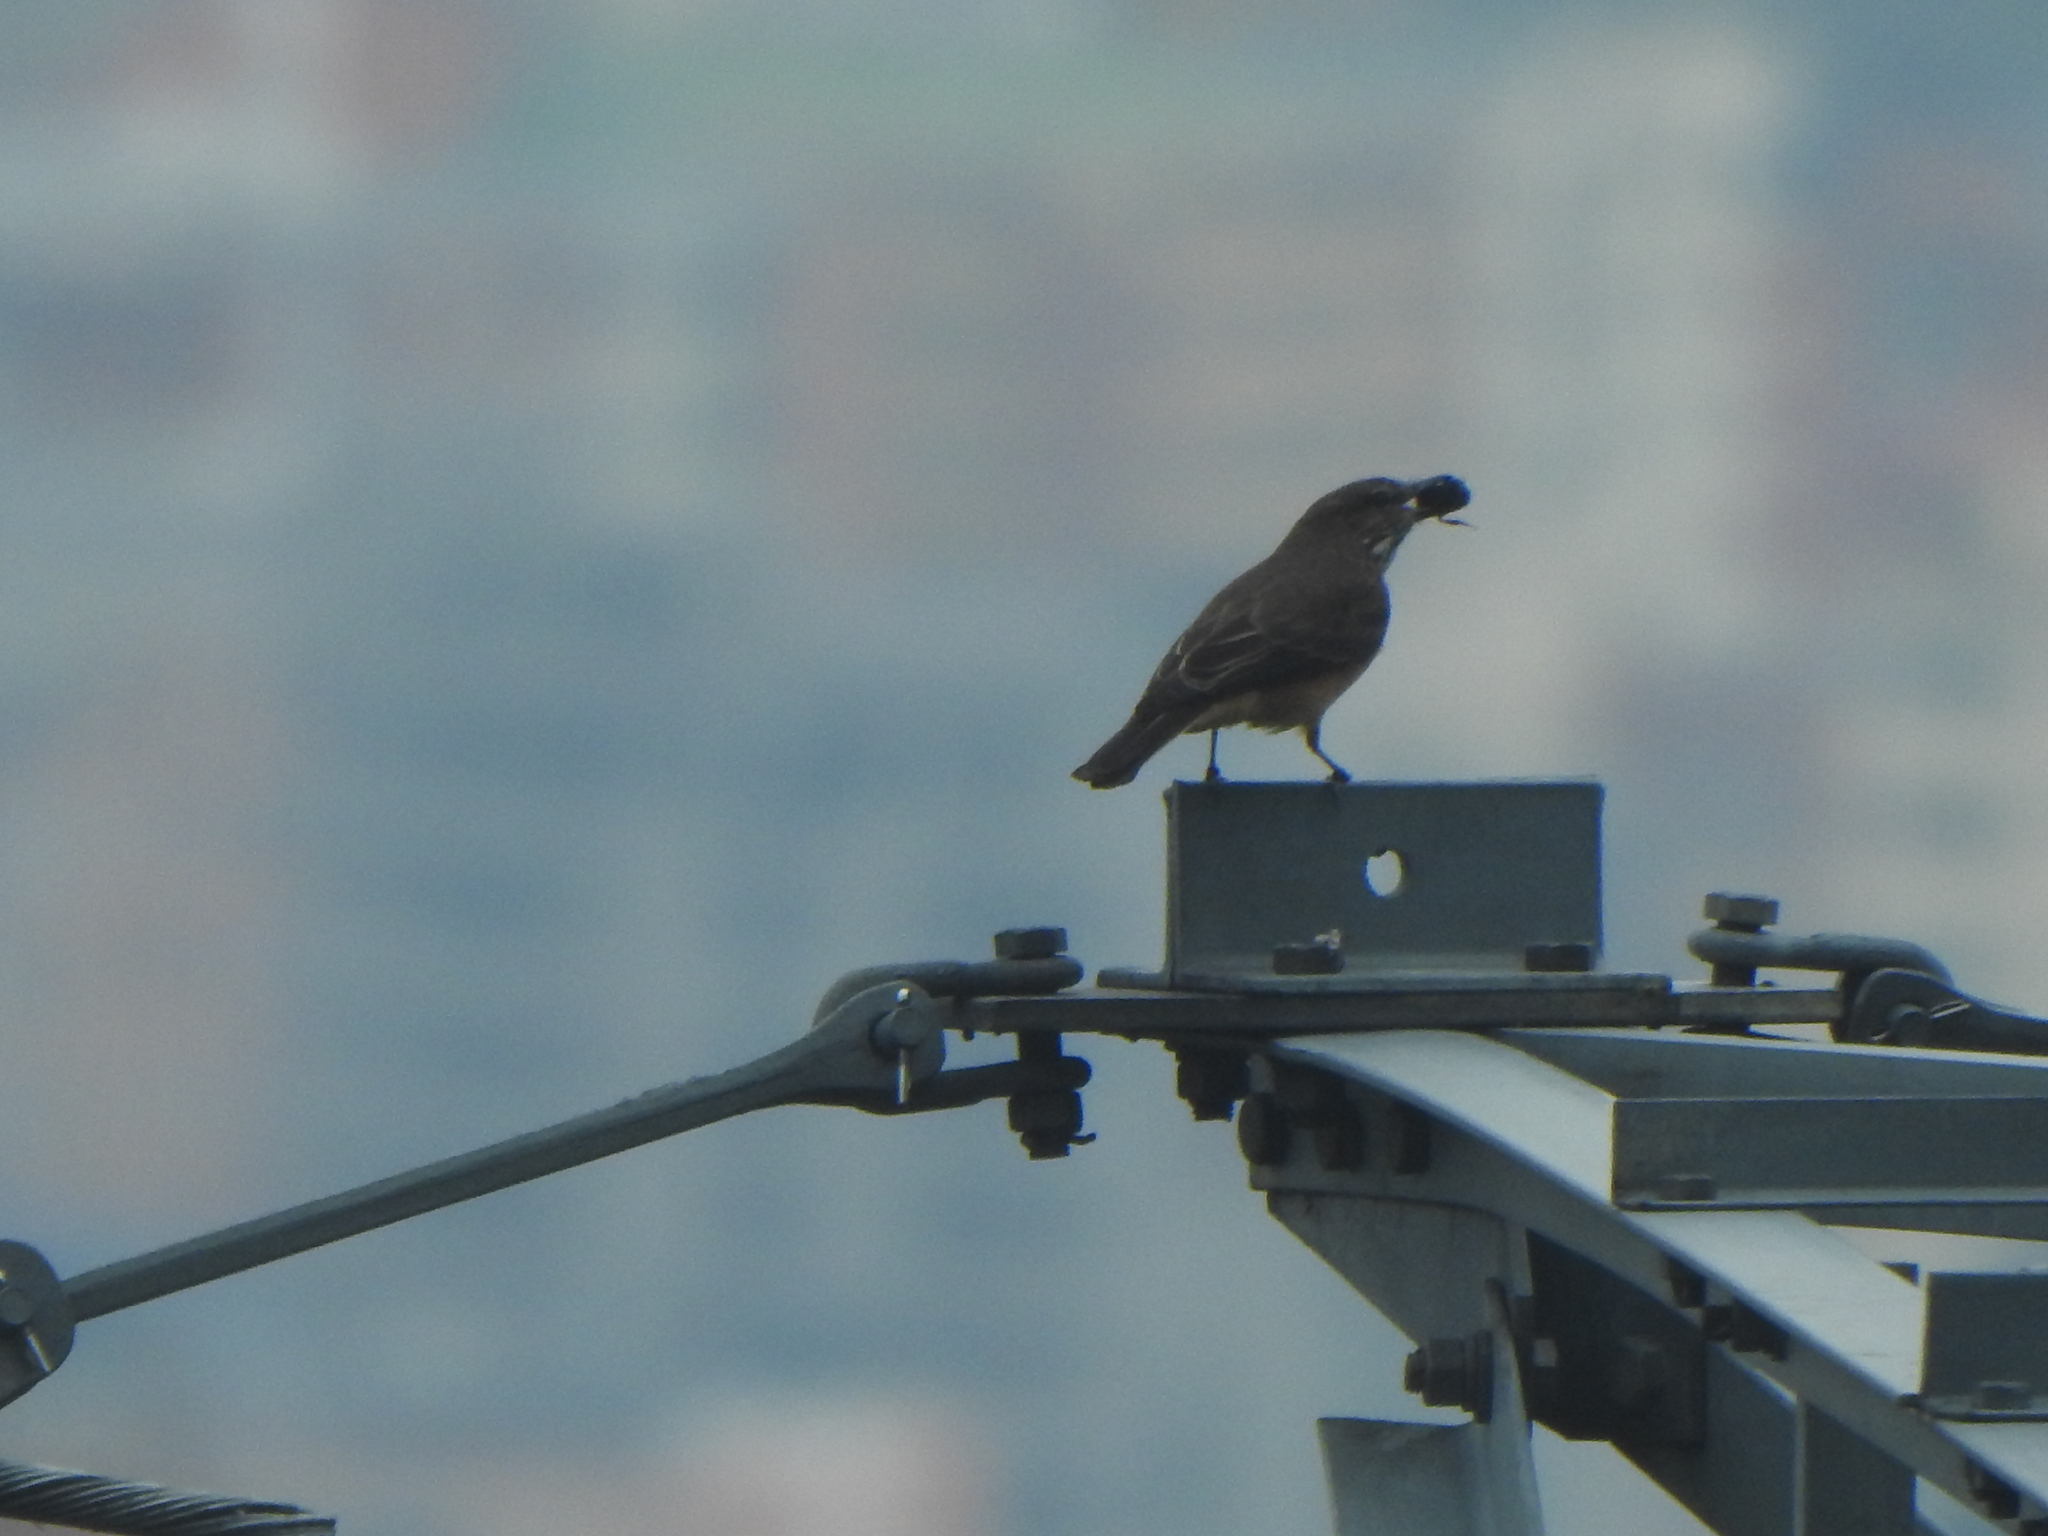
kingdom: Animalia
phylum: Chordata
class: Aves
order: Passeriformes
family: Tyrannidae
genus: Myiotheretes
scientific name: Myiotheretes striaticollis
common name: Streak-throated bush tyrant
